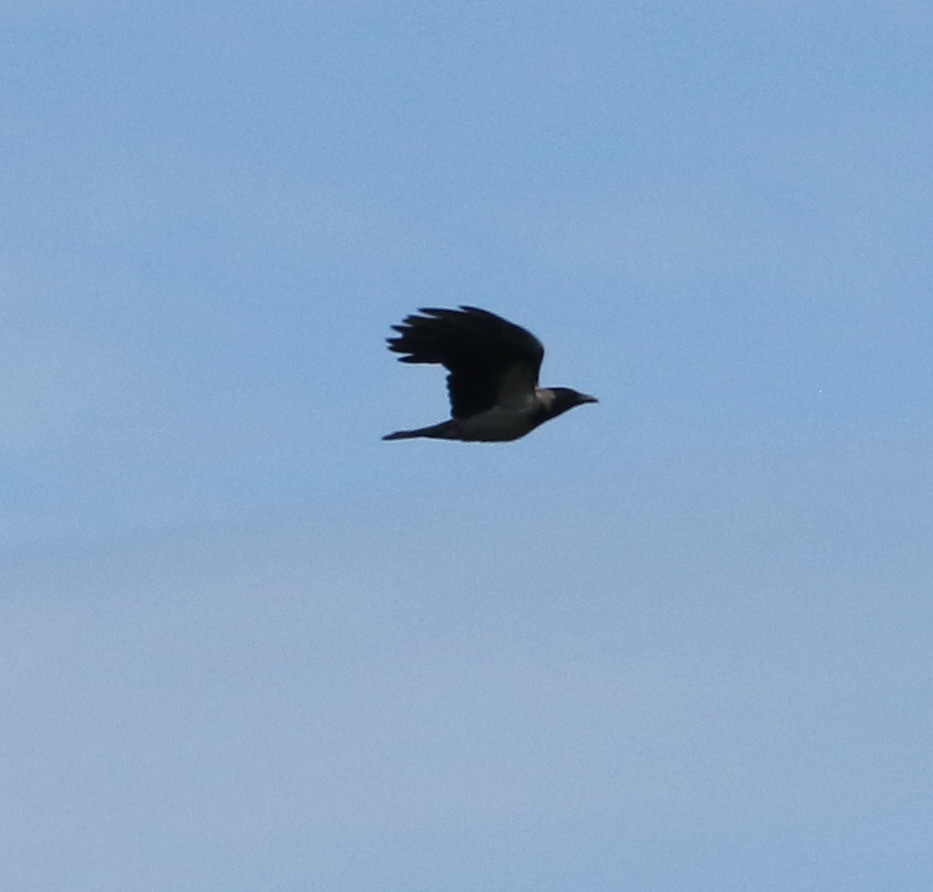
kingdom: Animalia
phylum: Chordata
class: Aves
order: Passeriformes
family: Corvidae
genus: Corvus
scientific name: Corvus cornix
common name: Hooded crow
